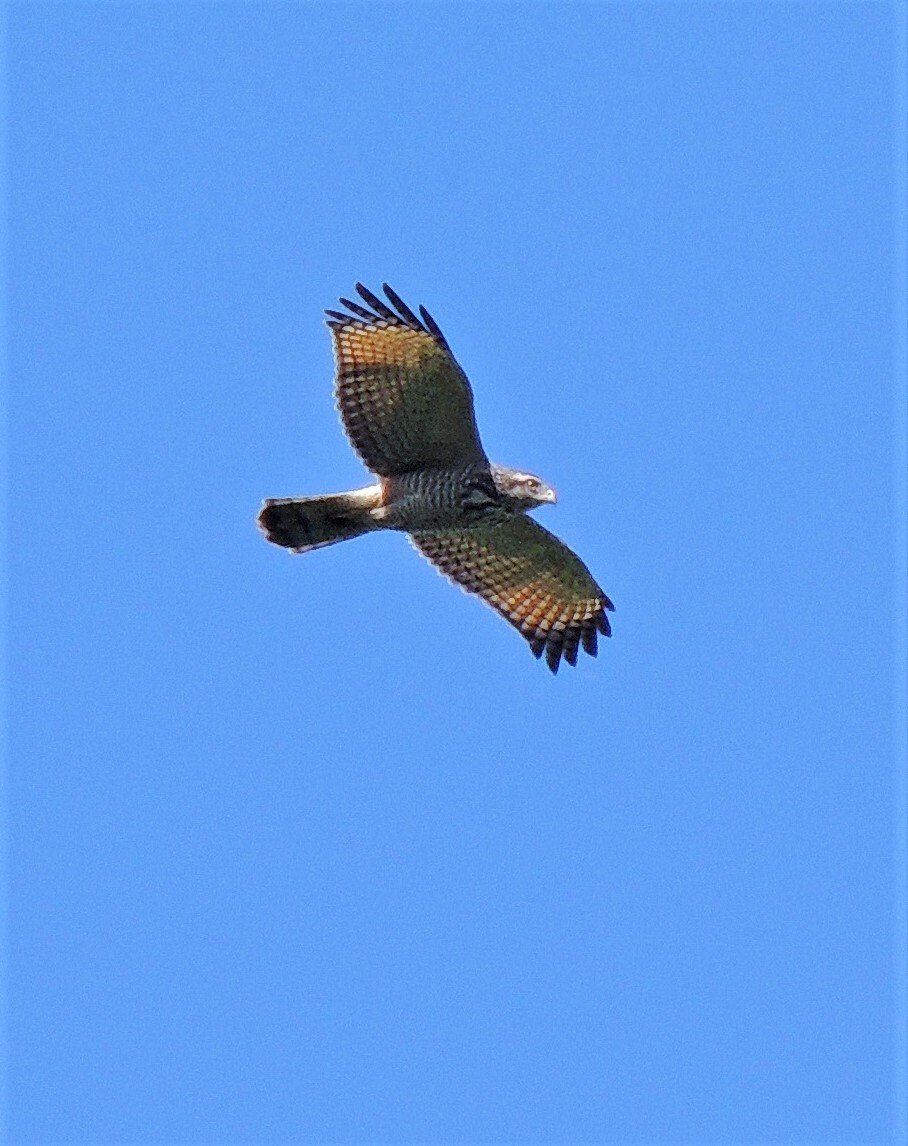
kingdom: Animalia
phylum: Chordata
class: Aves
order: Accipitriformes
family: Accipitridae
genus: Rupornis
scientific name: Rupornis magnirostris
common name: Roadside hawk
